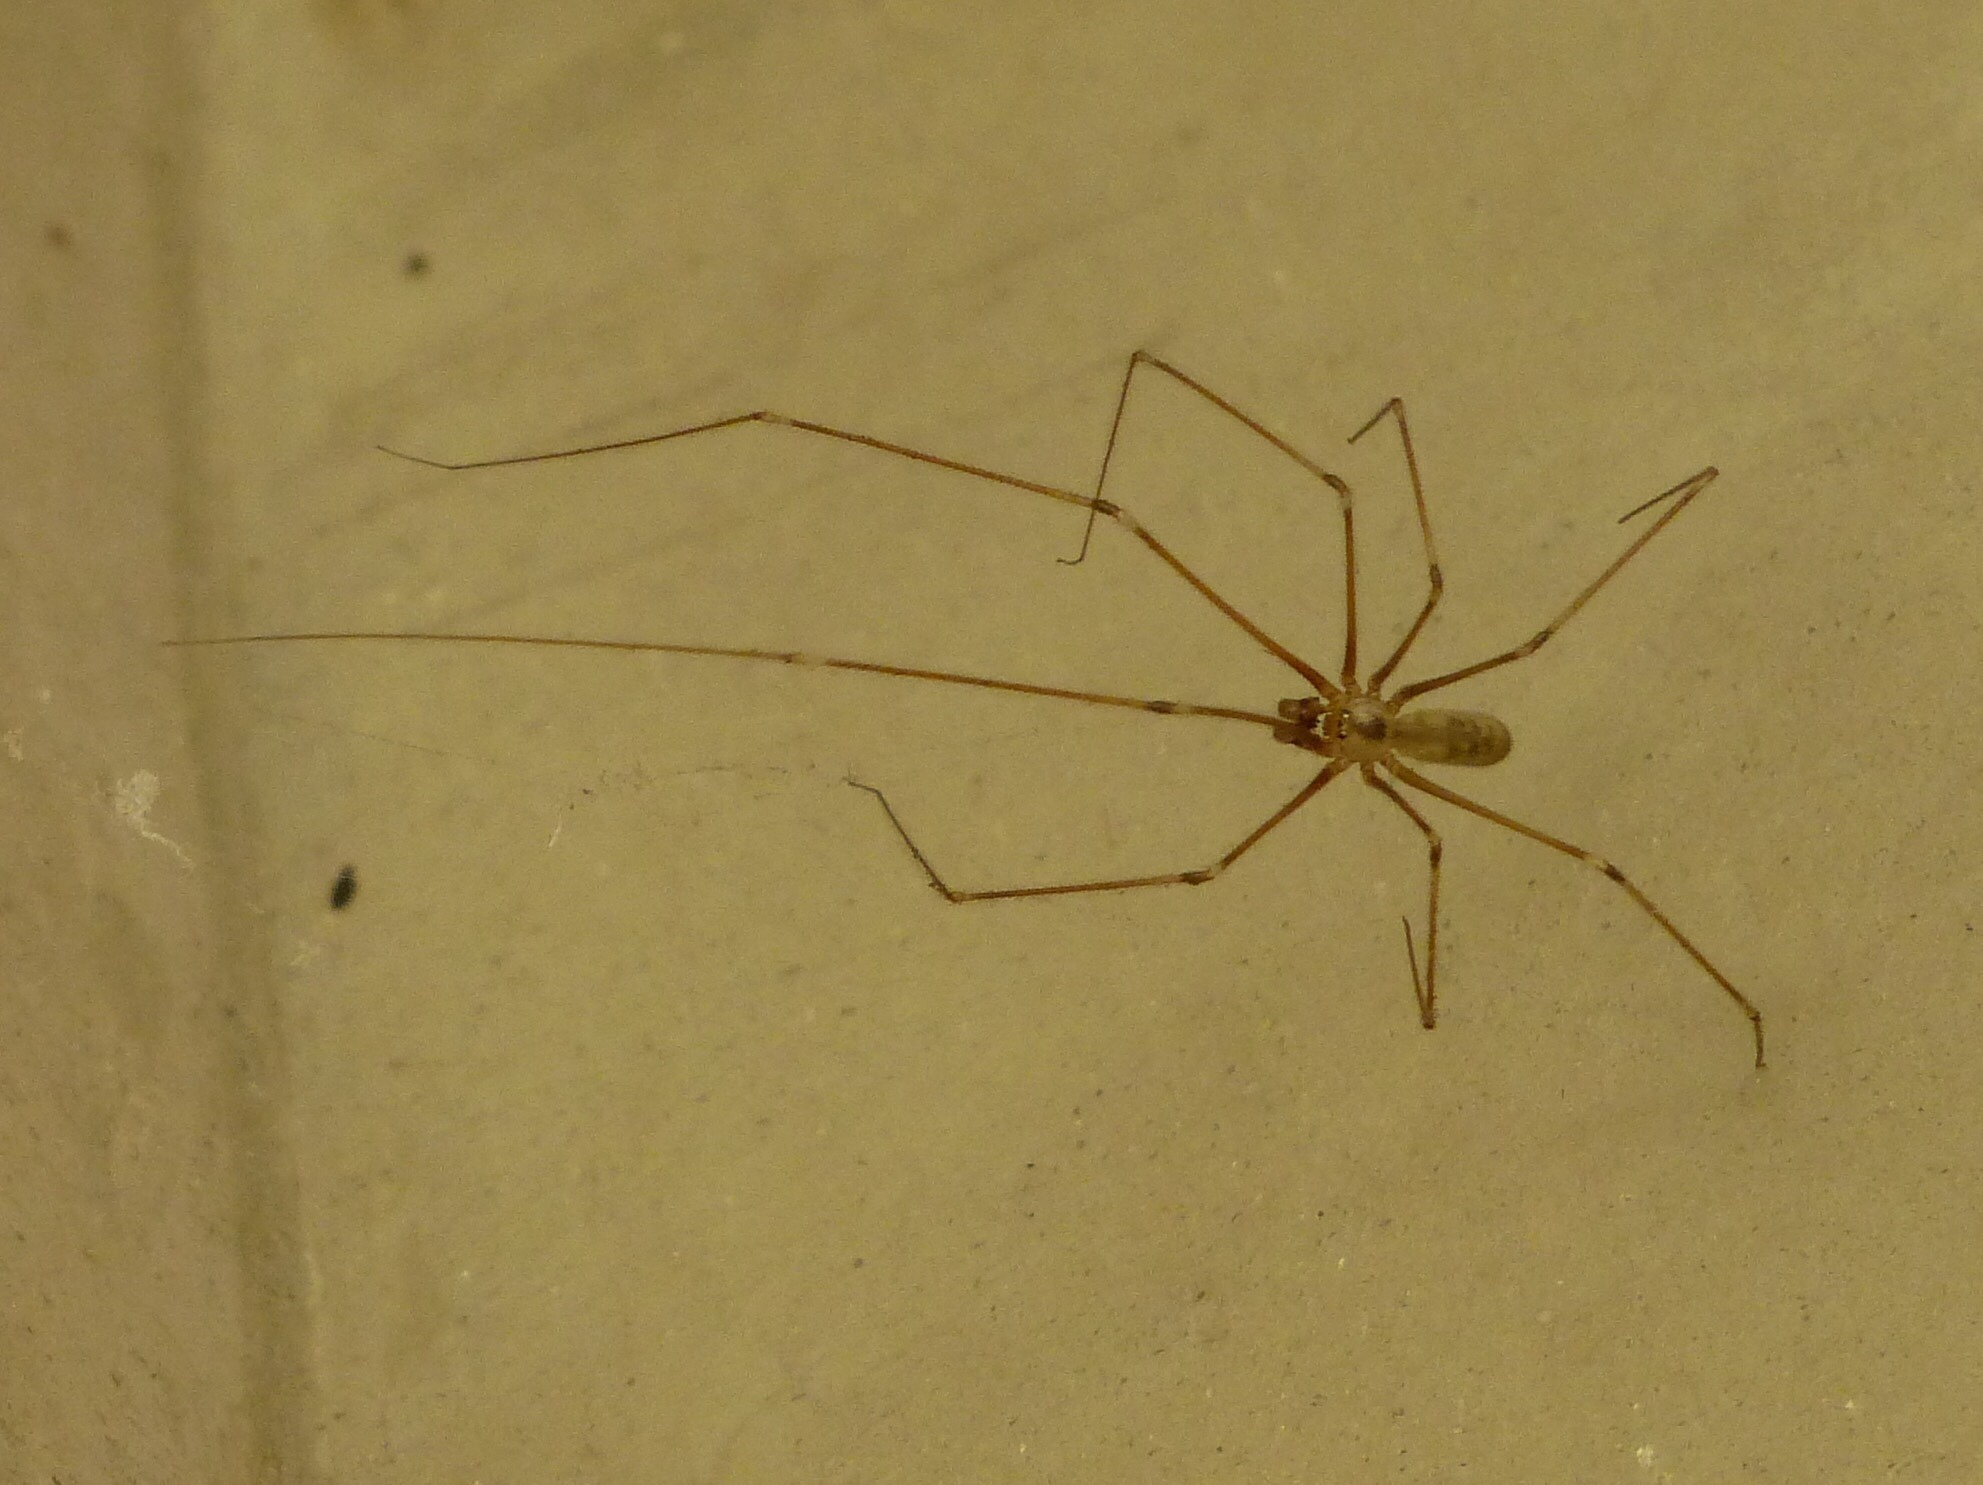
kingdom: Animalia
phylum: Arthropoda
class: Arachnida
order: Araneae
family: Pholcidae
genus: Pholcus
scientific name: Pholcus phalangioides
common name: Longbodied cellar spider
